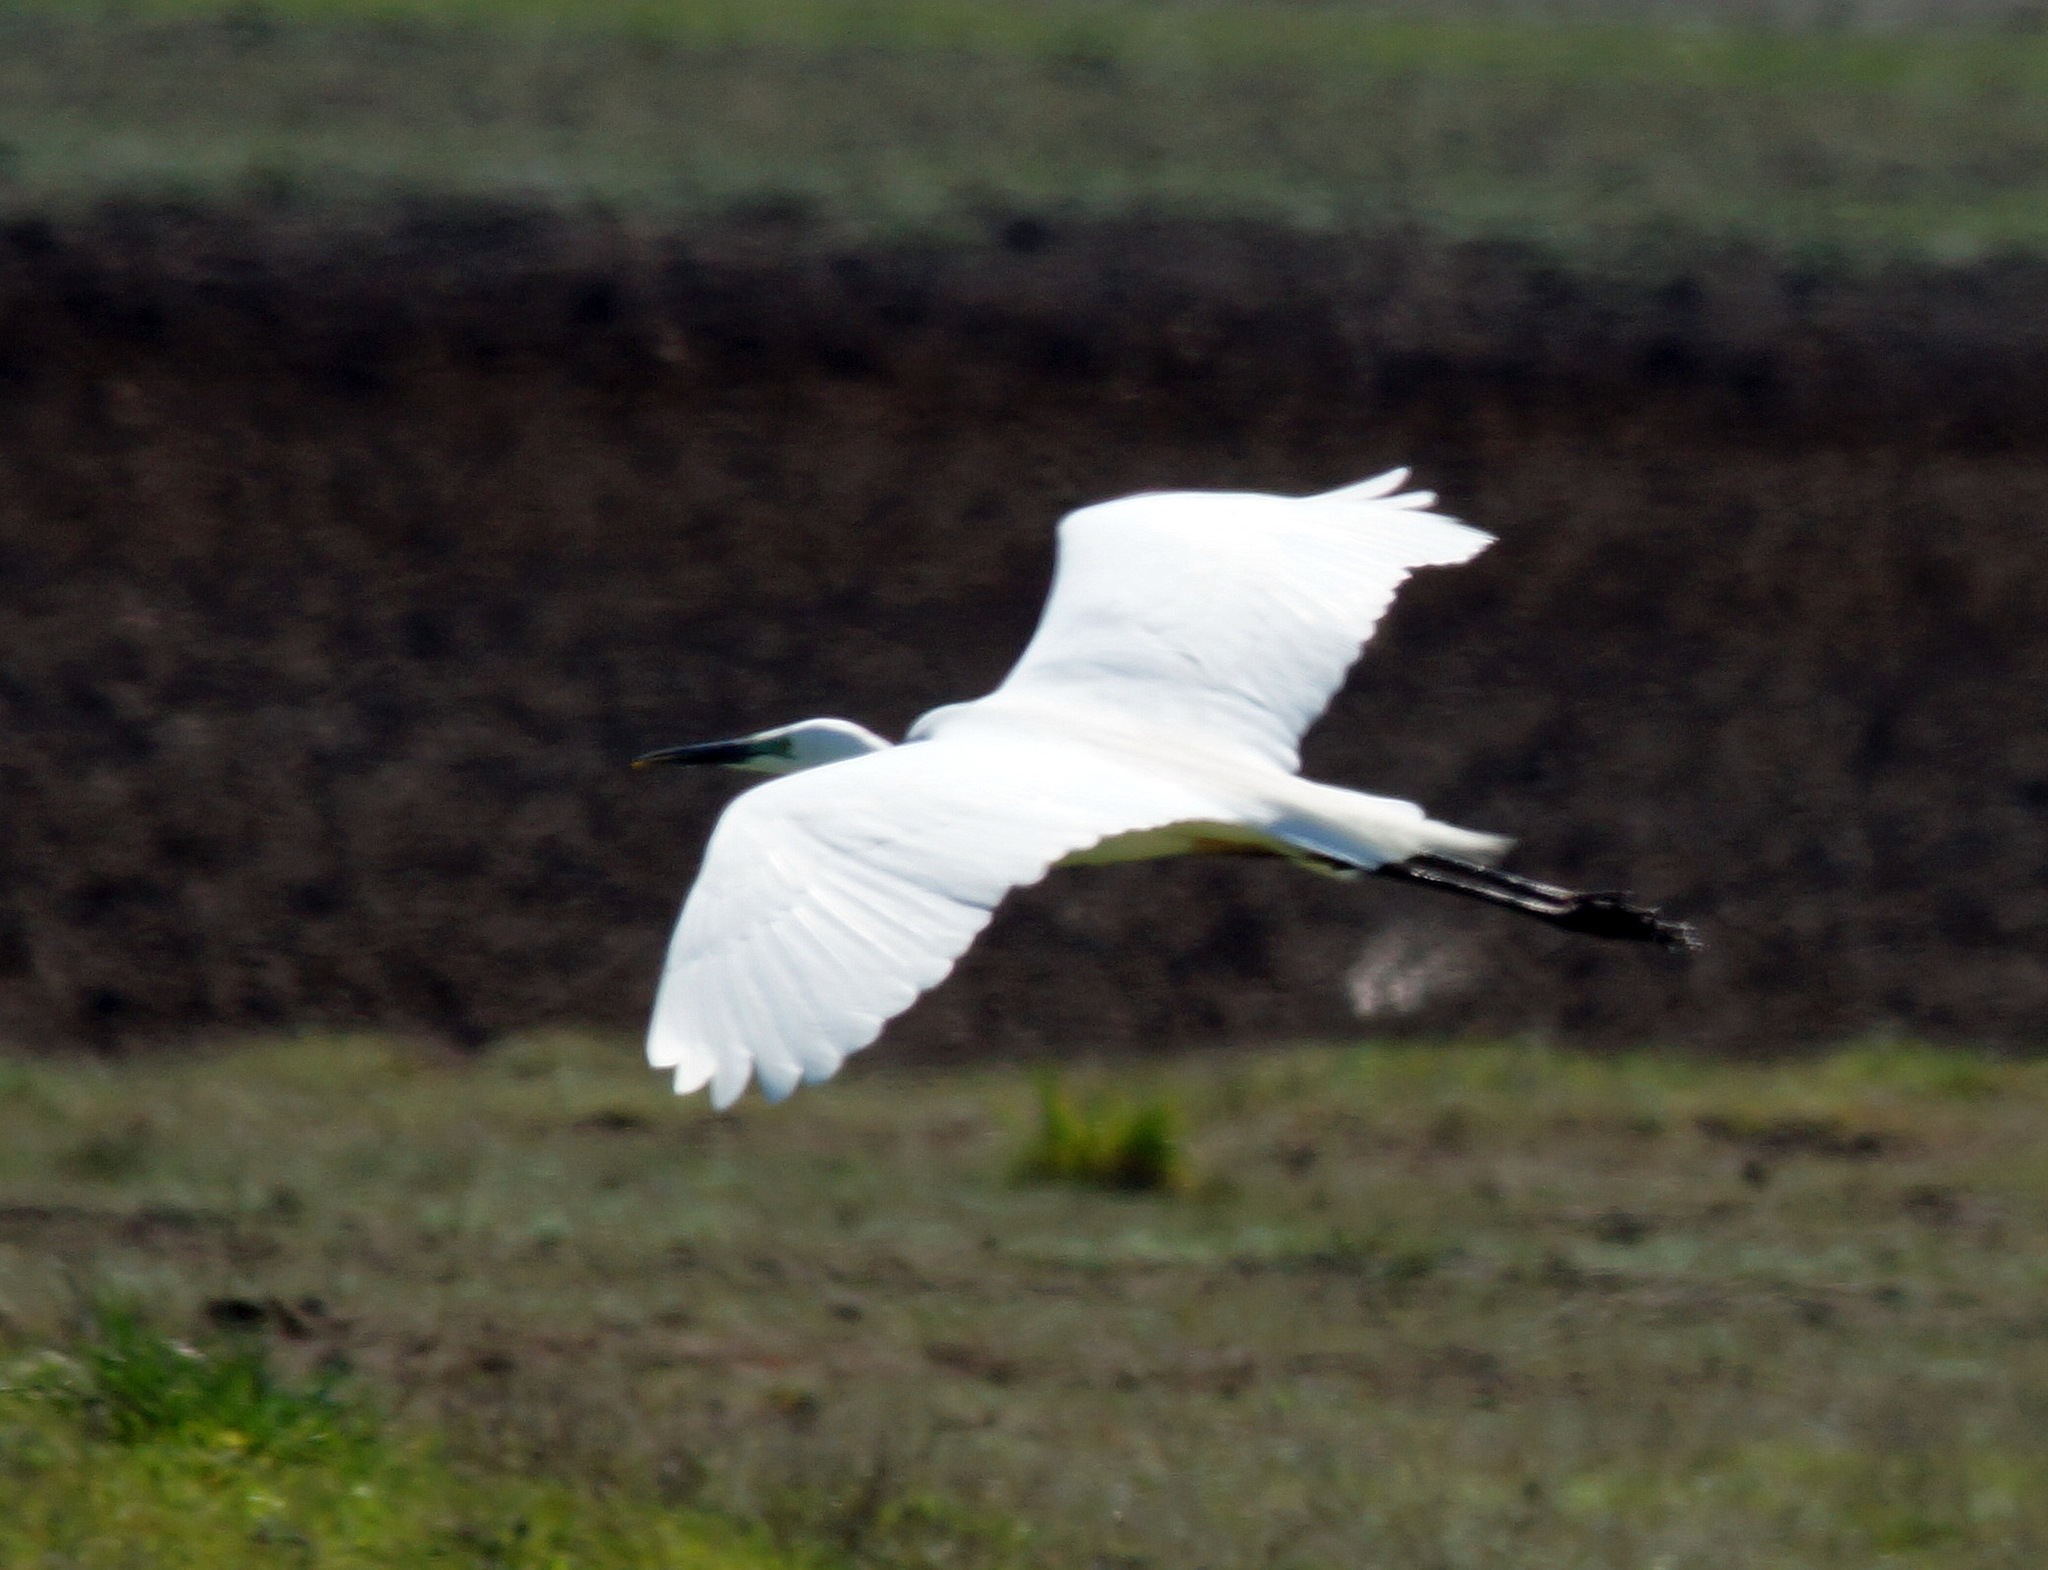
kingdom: Animalia
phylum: Chordata
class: Aves
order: Pelecaniformes
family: Ardeidae
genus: Ardea
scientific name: Ardea alba
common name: Great egret
